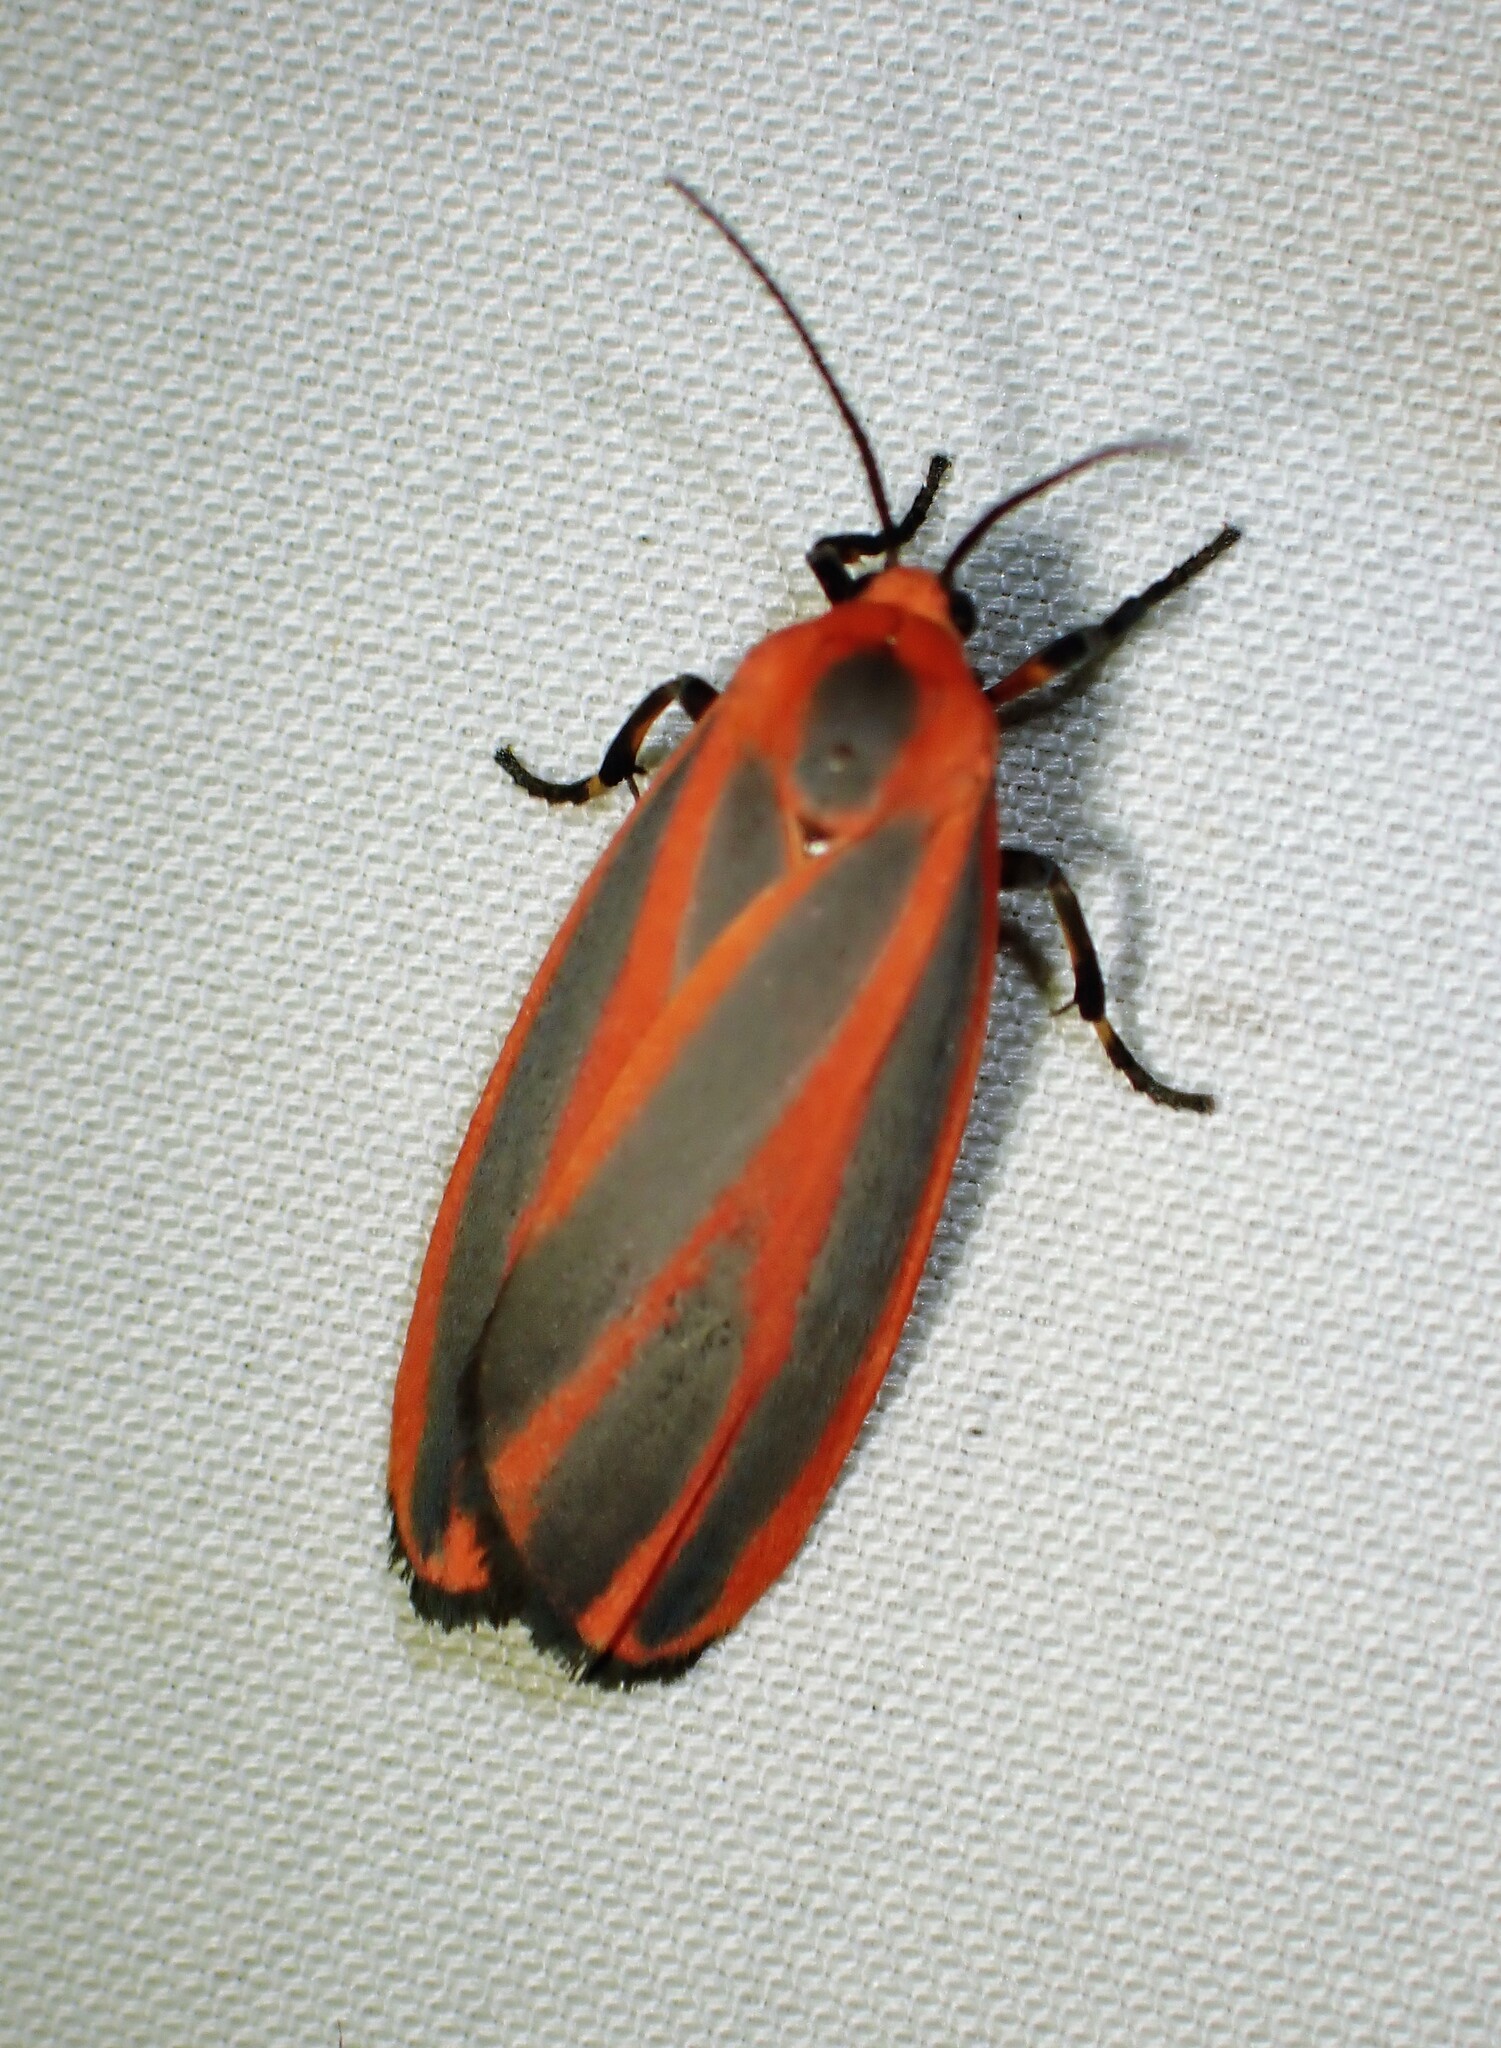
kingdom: Animalia
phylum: Arthropoda
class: Insecta
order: Lepidoptera
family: Erebidae
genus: Hypoprepia
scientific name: Hypoprepia miniata
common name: Scarlet-winged lichen moth
